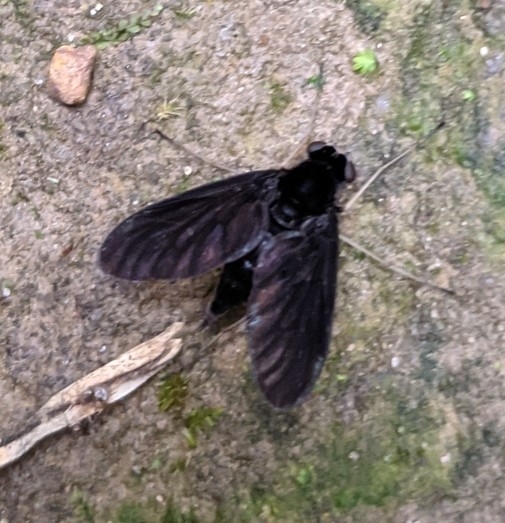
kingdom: Animalia
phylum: Arthropoda
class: Insecta
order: Diptera
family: Rhagionidae
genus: Chrysopilus
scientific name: Chrysopilus velutinus
